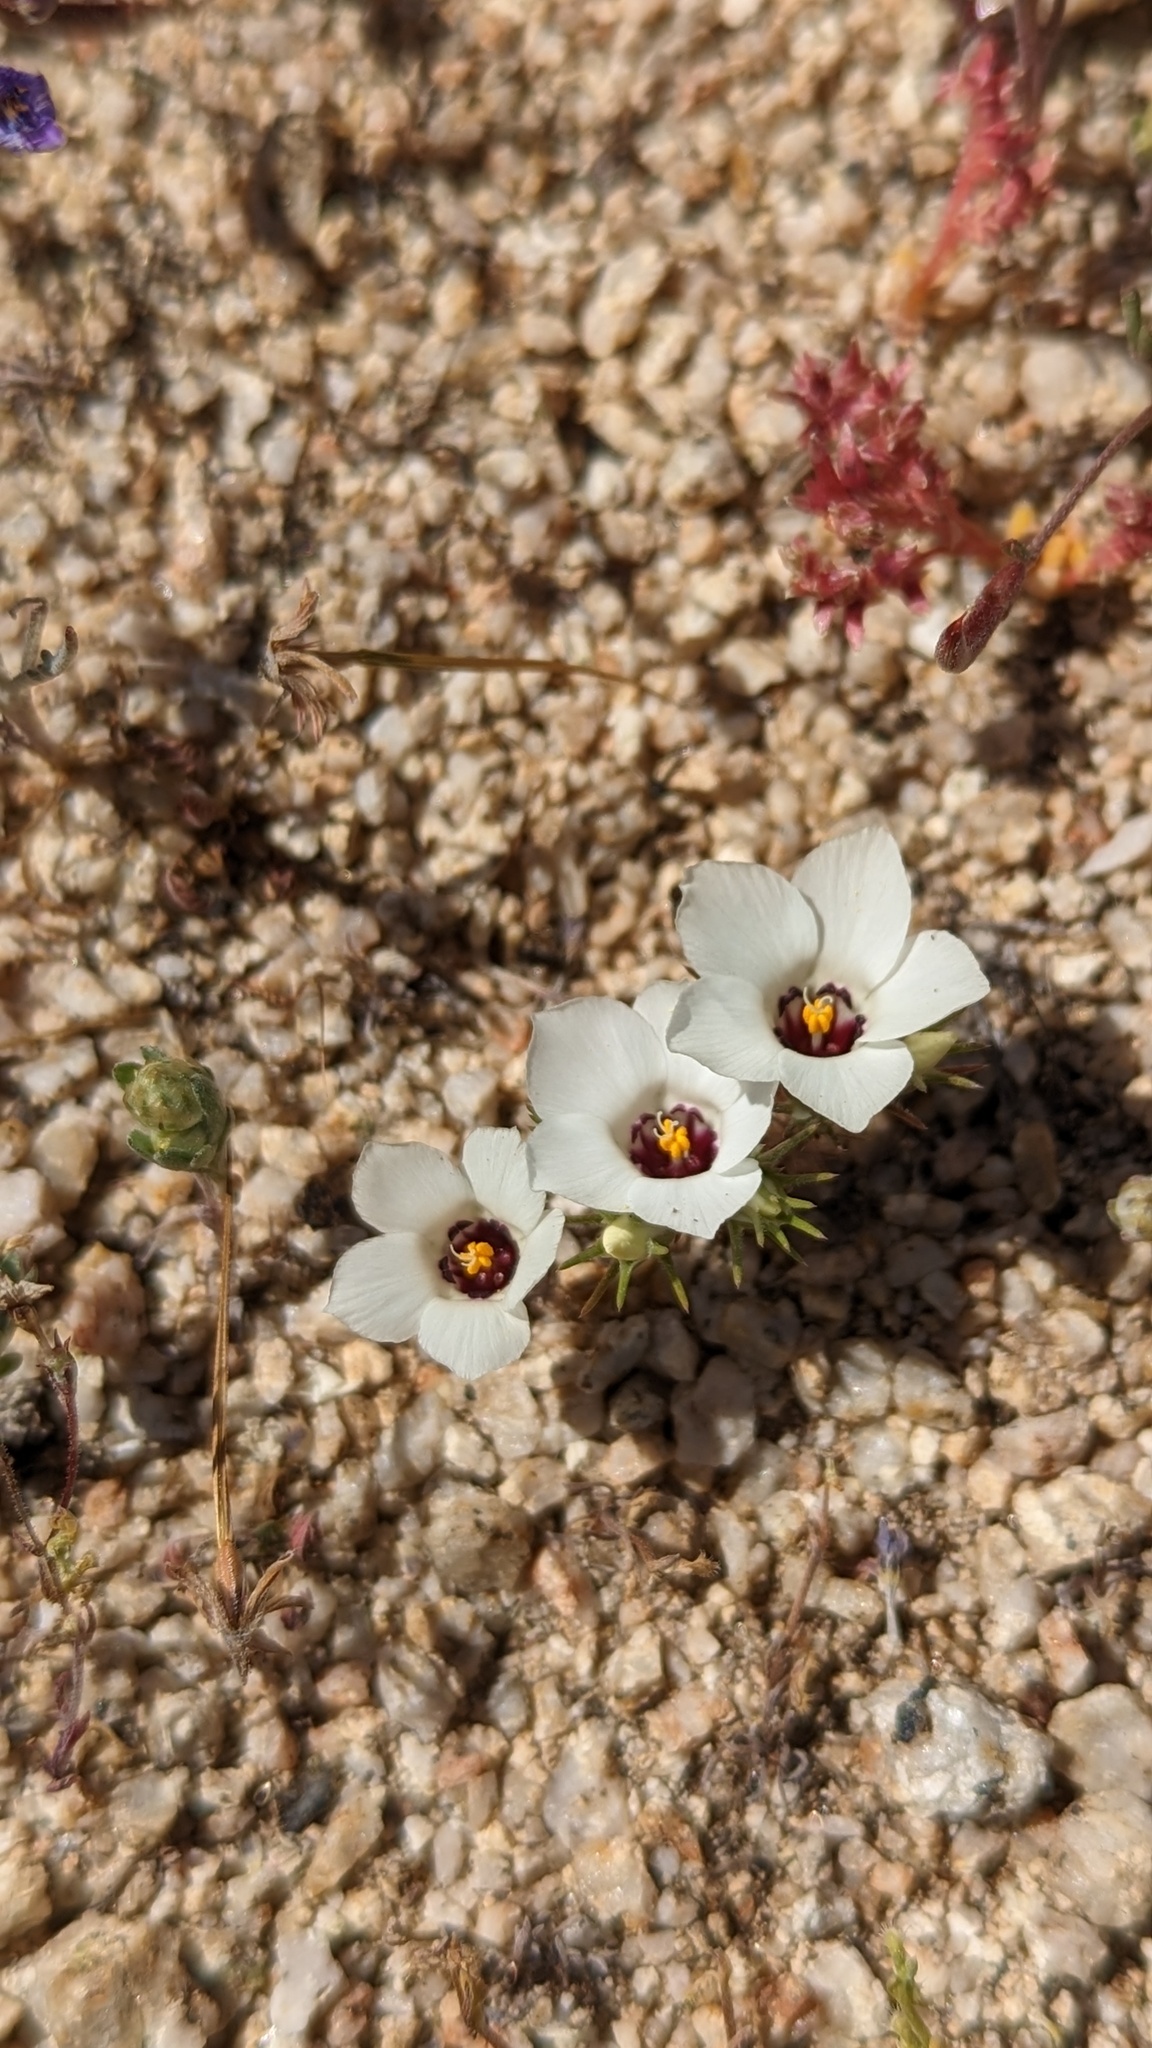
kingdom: Plantae
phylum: Tracheophyta
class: Magnoliopsida
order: Ericales
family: Polemoniaceae
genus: Linanthus
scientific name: Linanthus parryae
